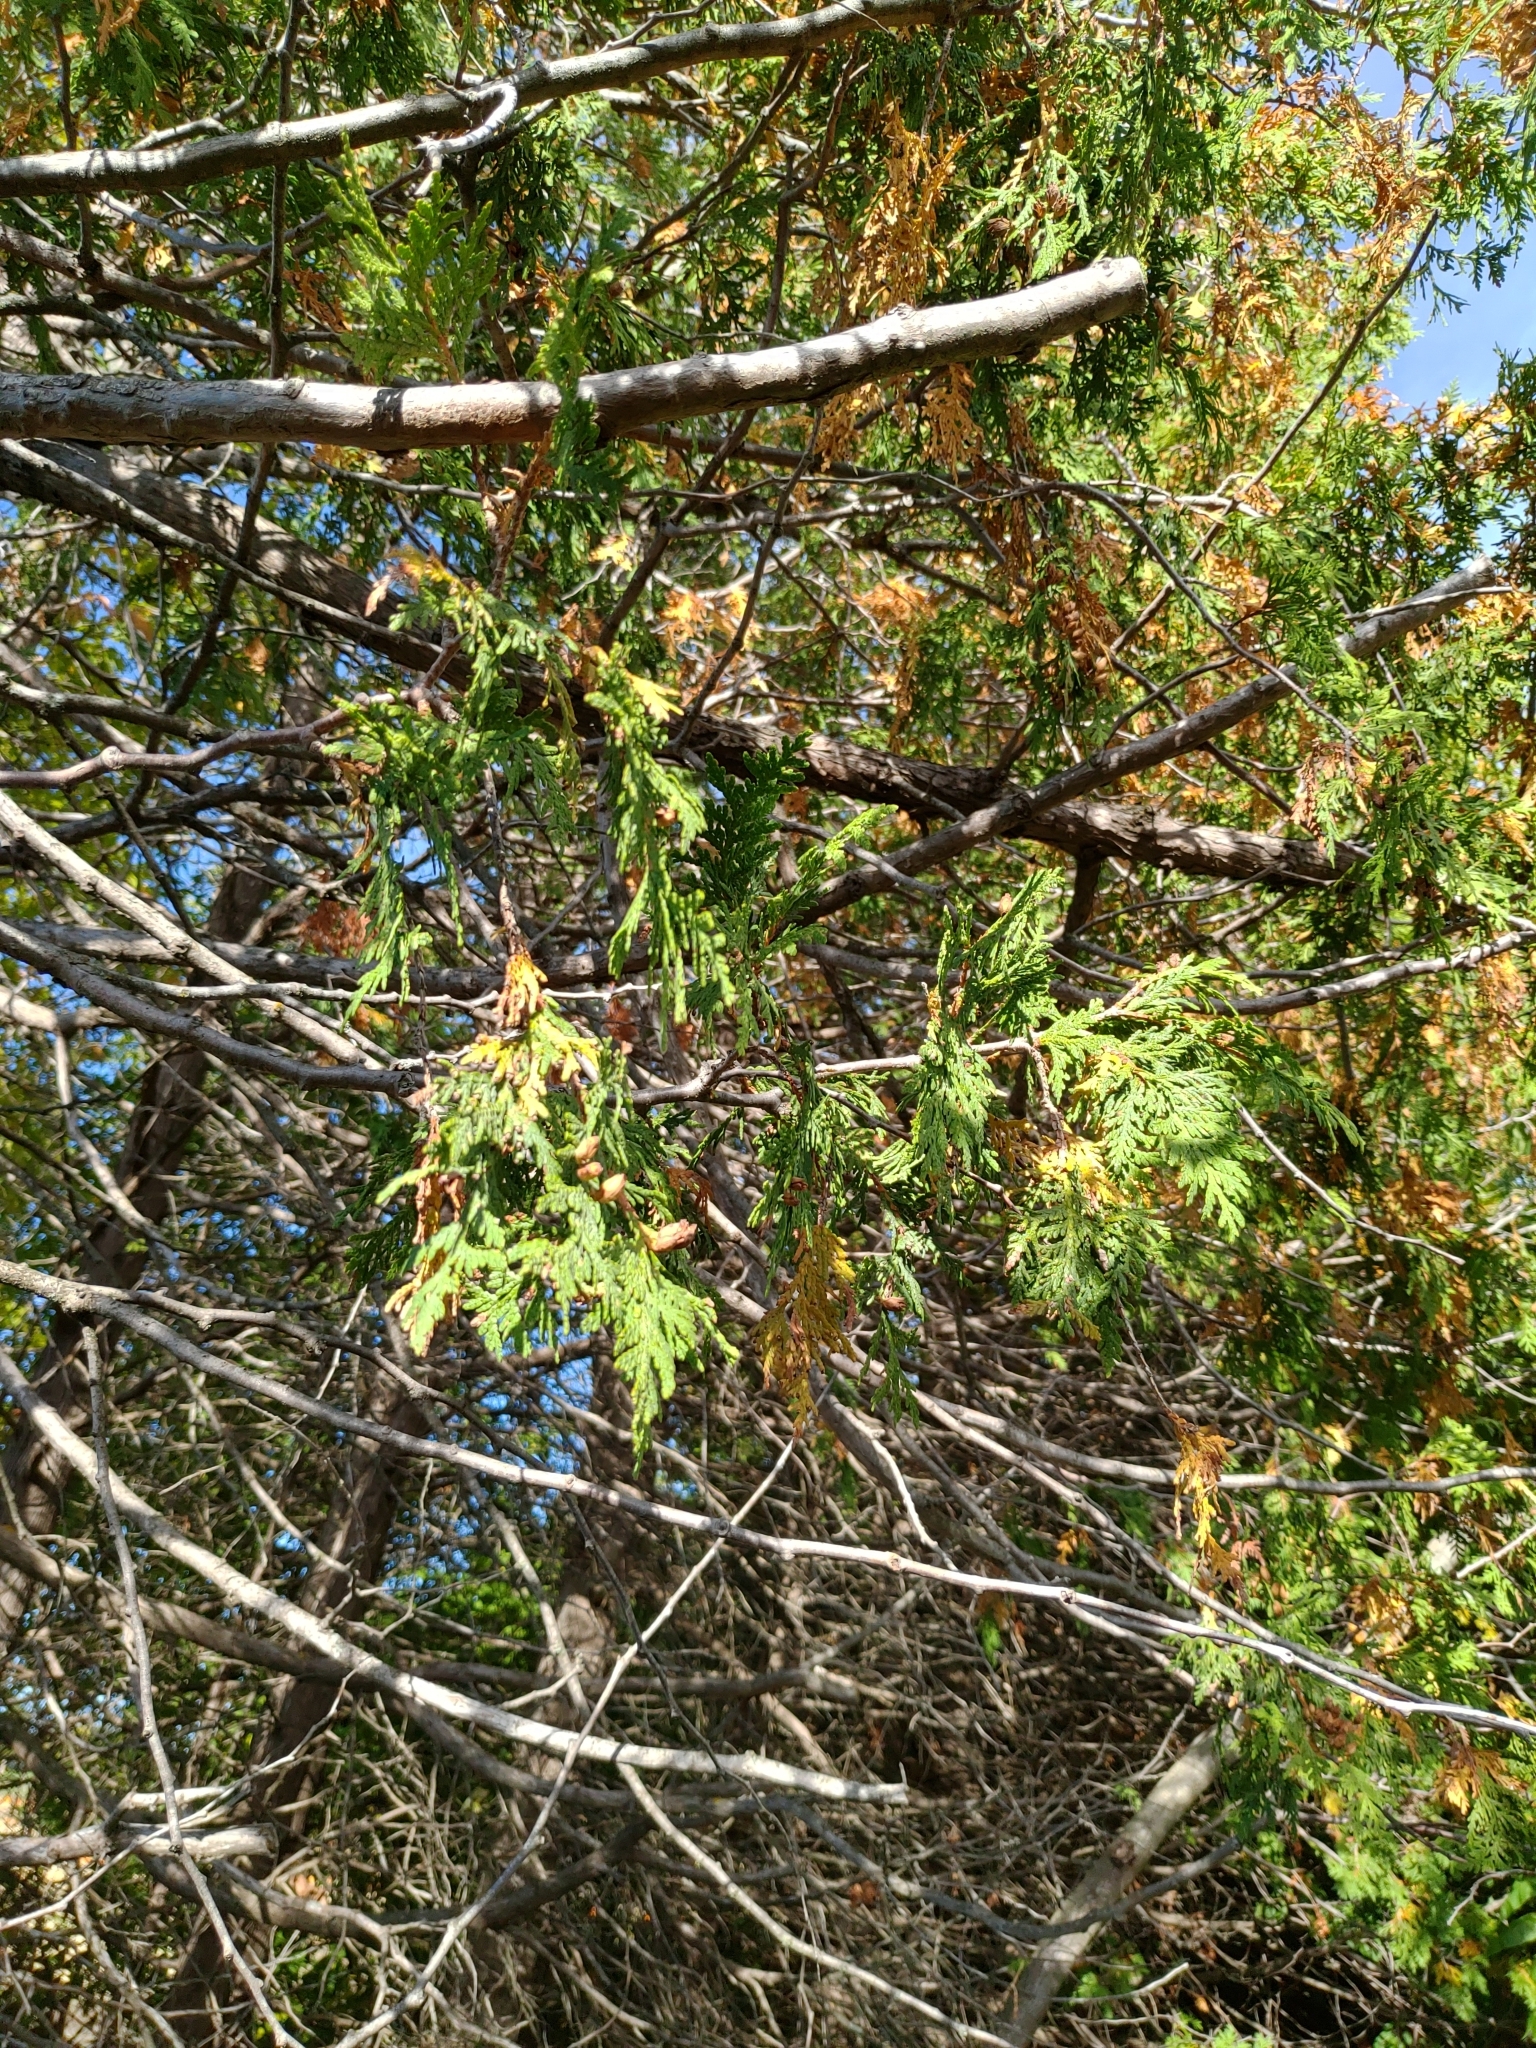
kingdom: Plantae
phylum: Tracheophyta
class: Pinopsida
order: Pinales
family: Cupressaceae
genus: Thuja
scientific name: Thuja occidentalis
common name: Northern white-cedar
